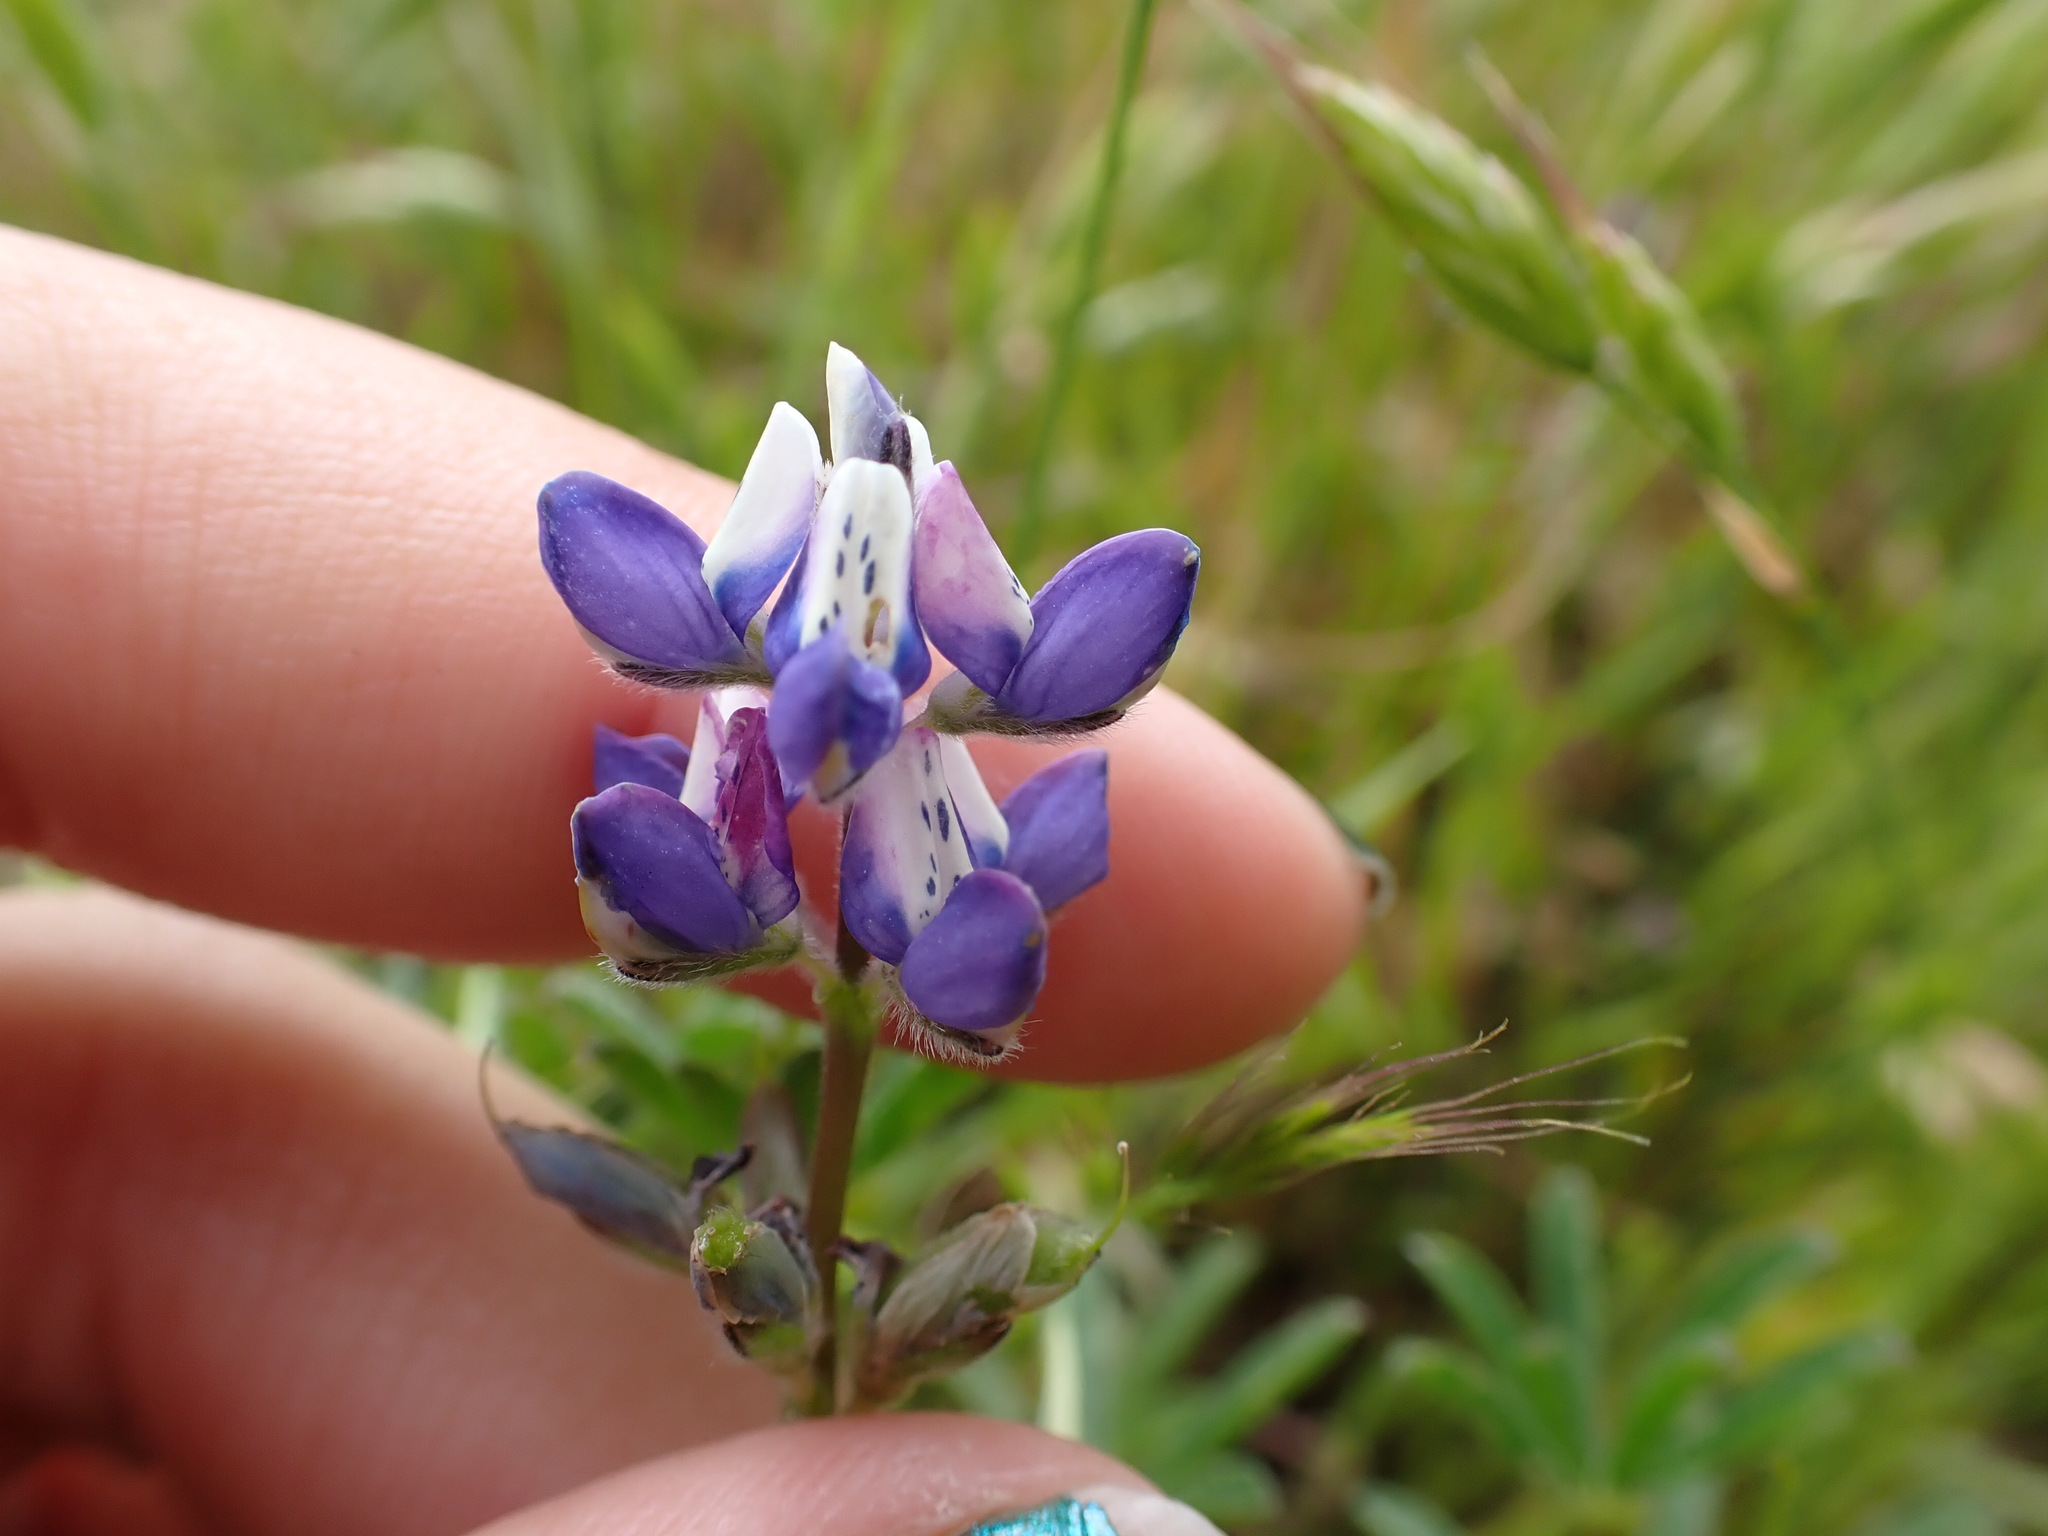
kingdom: Plantae
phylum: Tracheophyta
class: Magnoliopsida
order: Fabales
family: Fabaceae
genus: Lupinus
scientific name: Lupinus bicolor
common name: Miniature lupine
